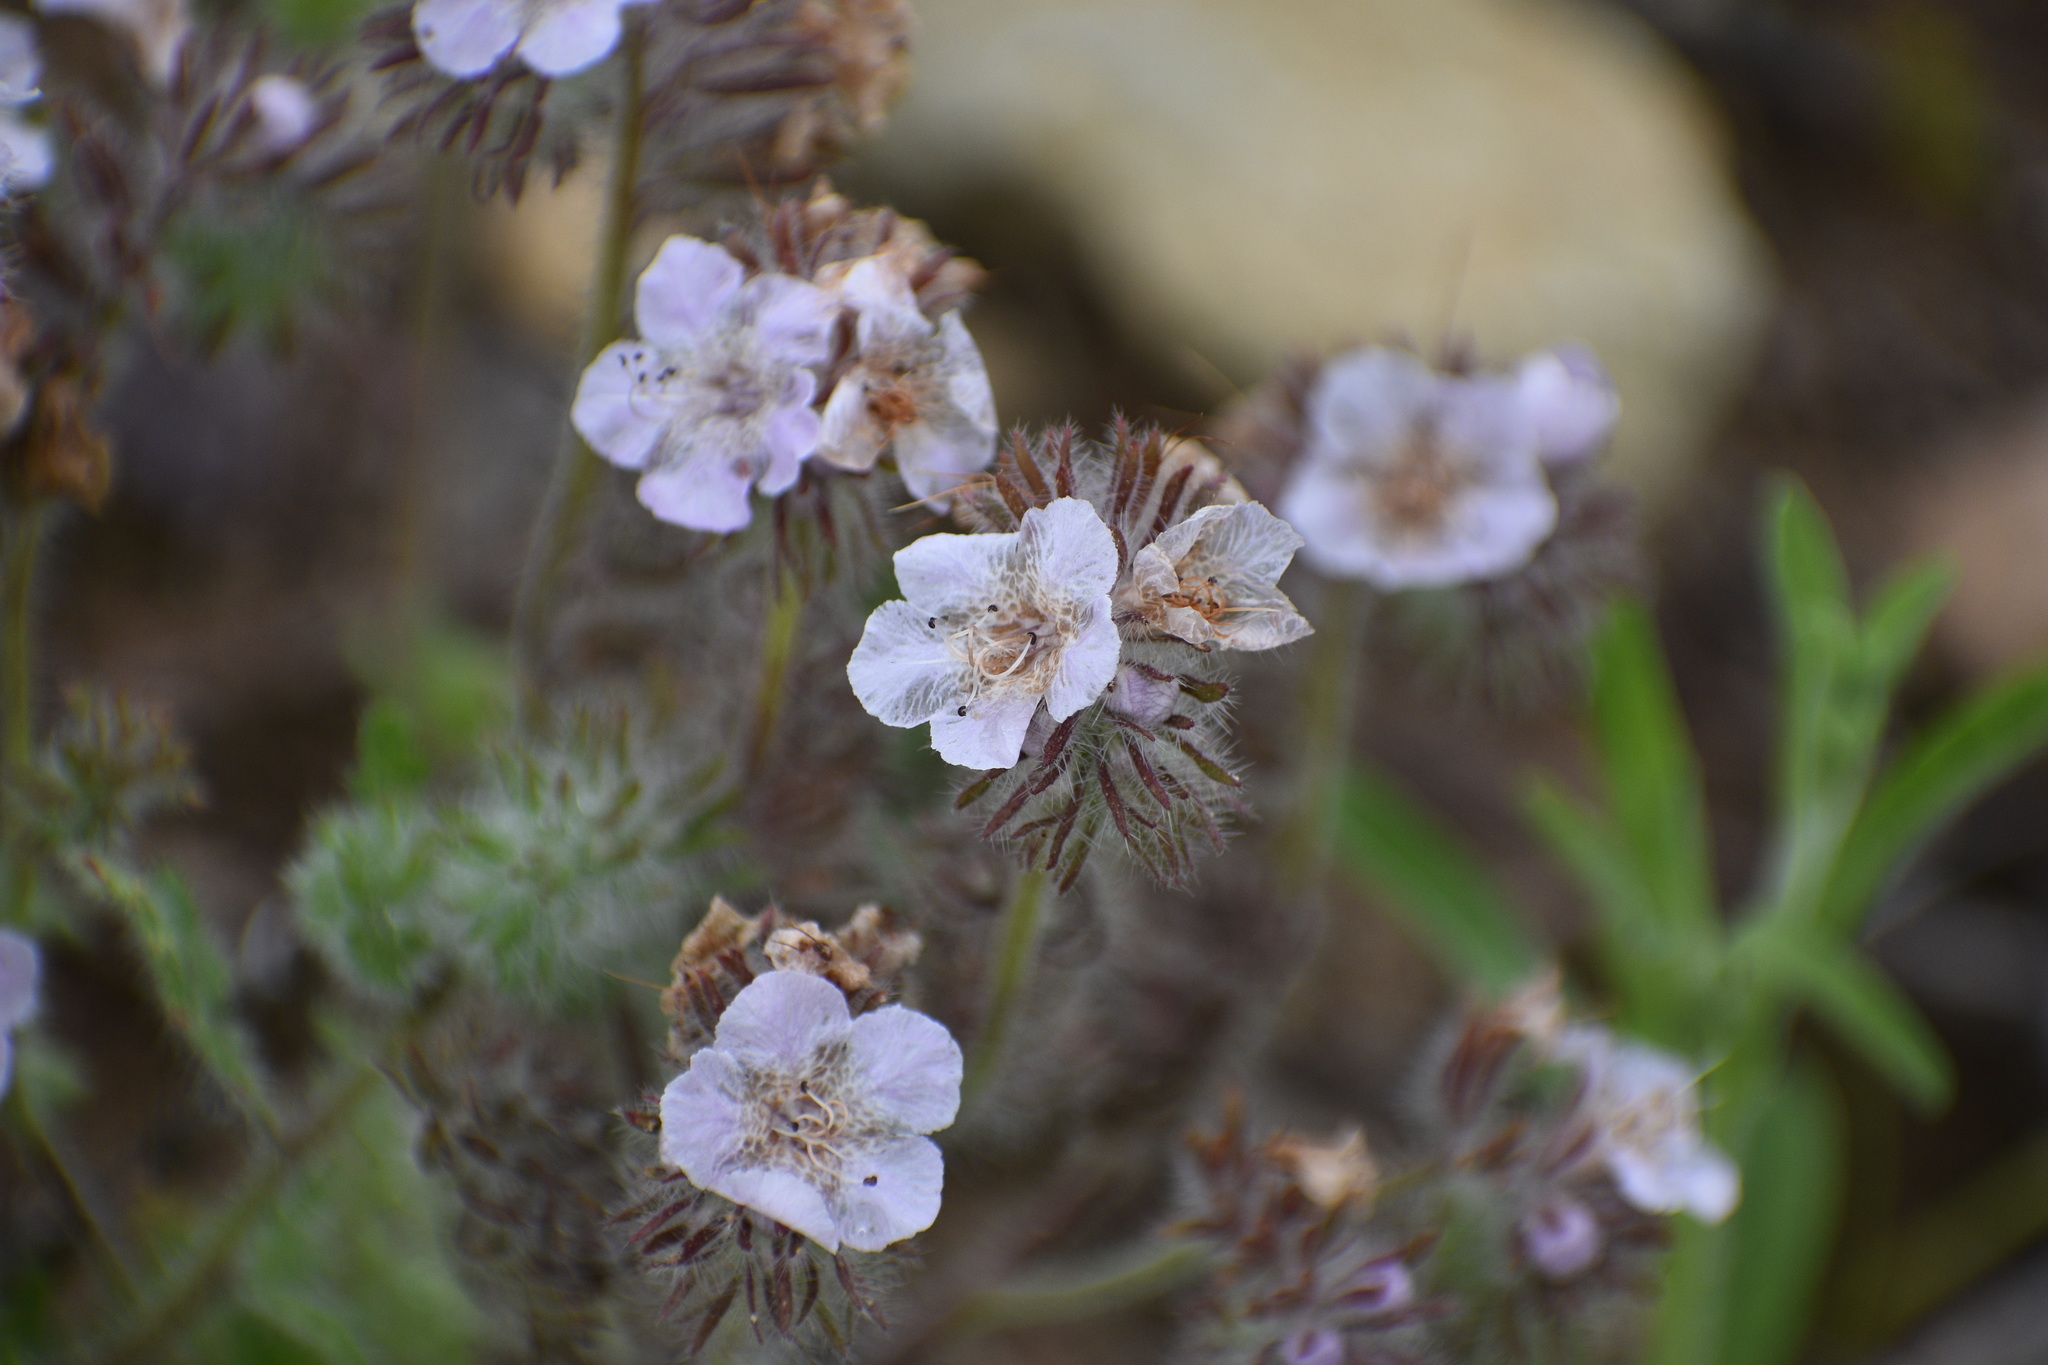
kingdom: Plantae
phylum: Tracheophyta
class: Magnoliopsida
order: Boraginales
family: Hydrophyllaceae
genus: Phacelia
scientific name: Phacelia cicutaria
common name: Caterpillar phacelia
